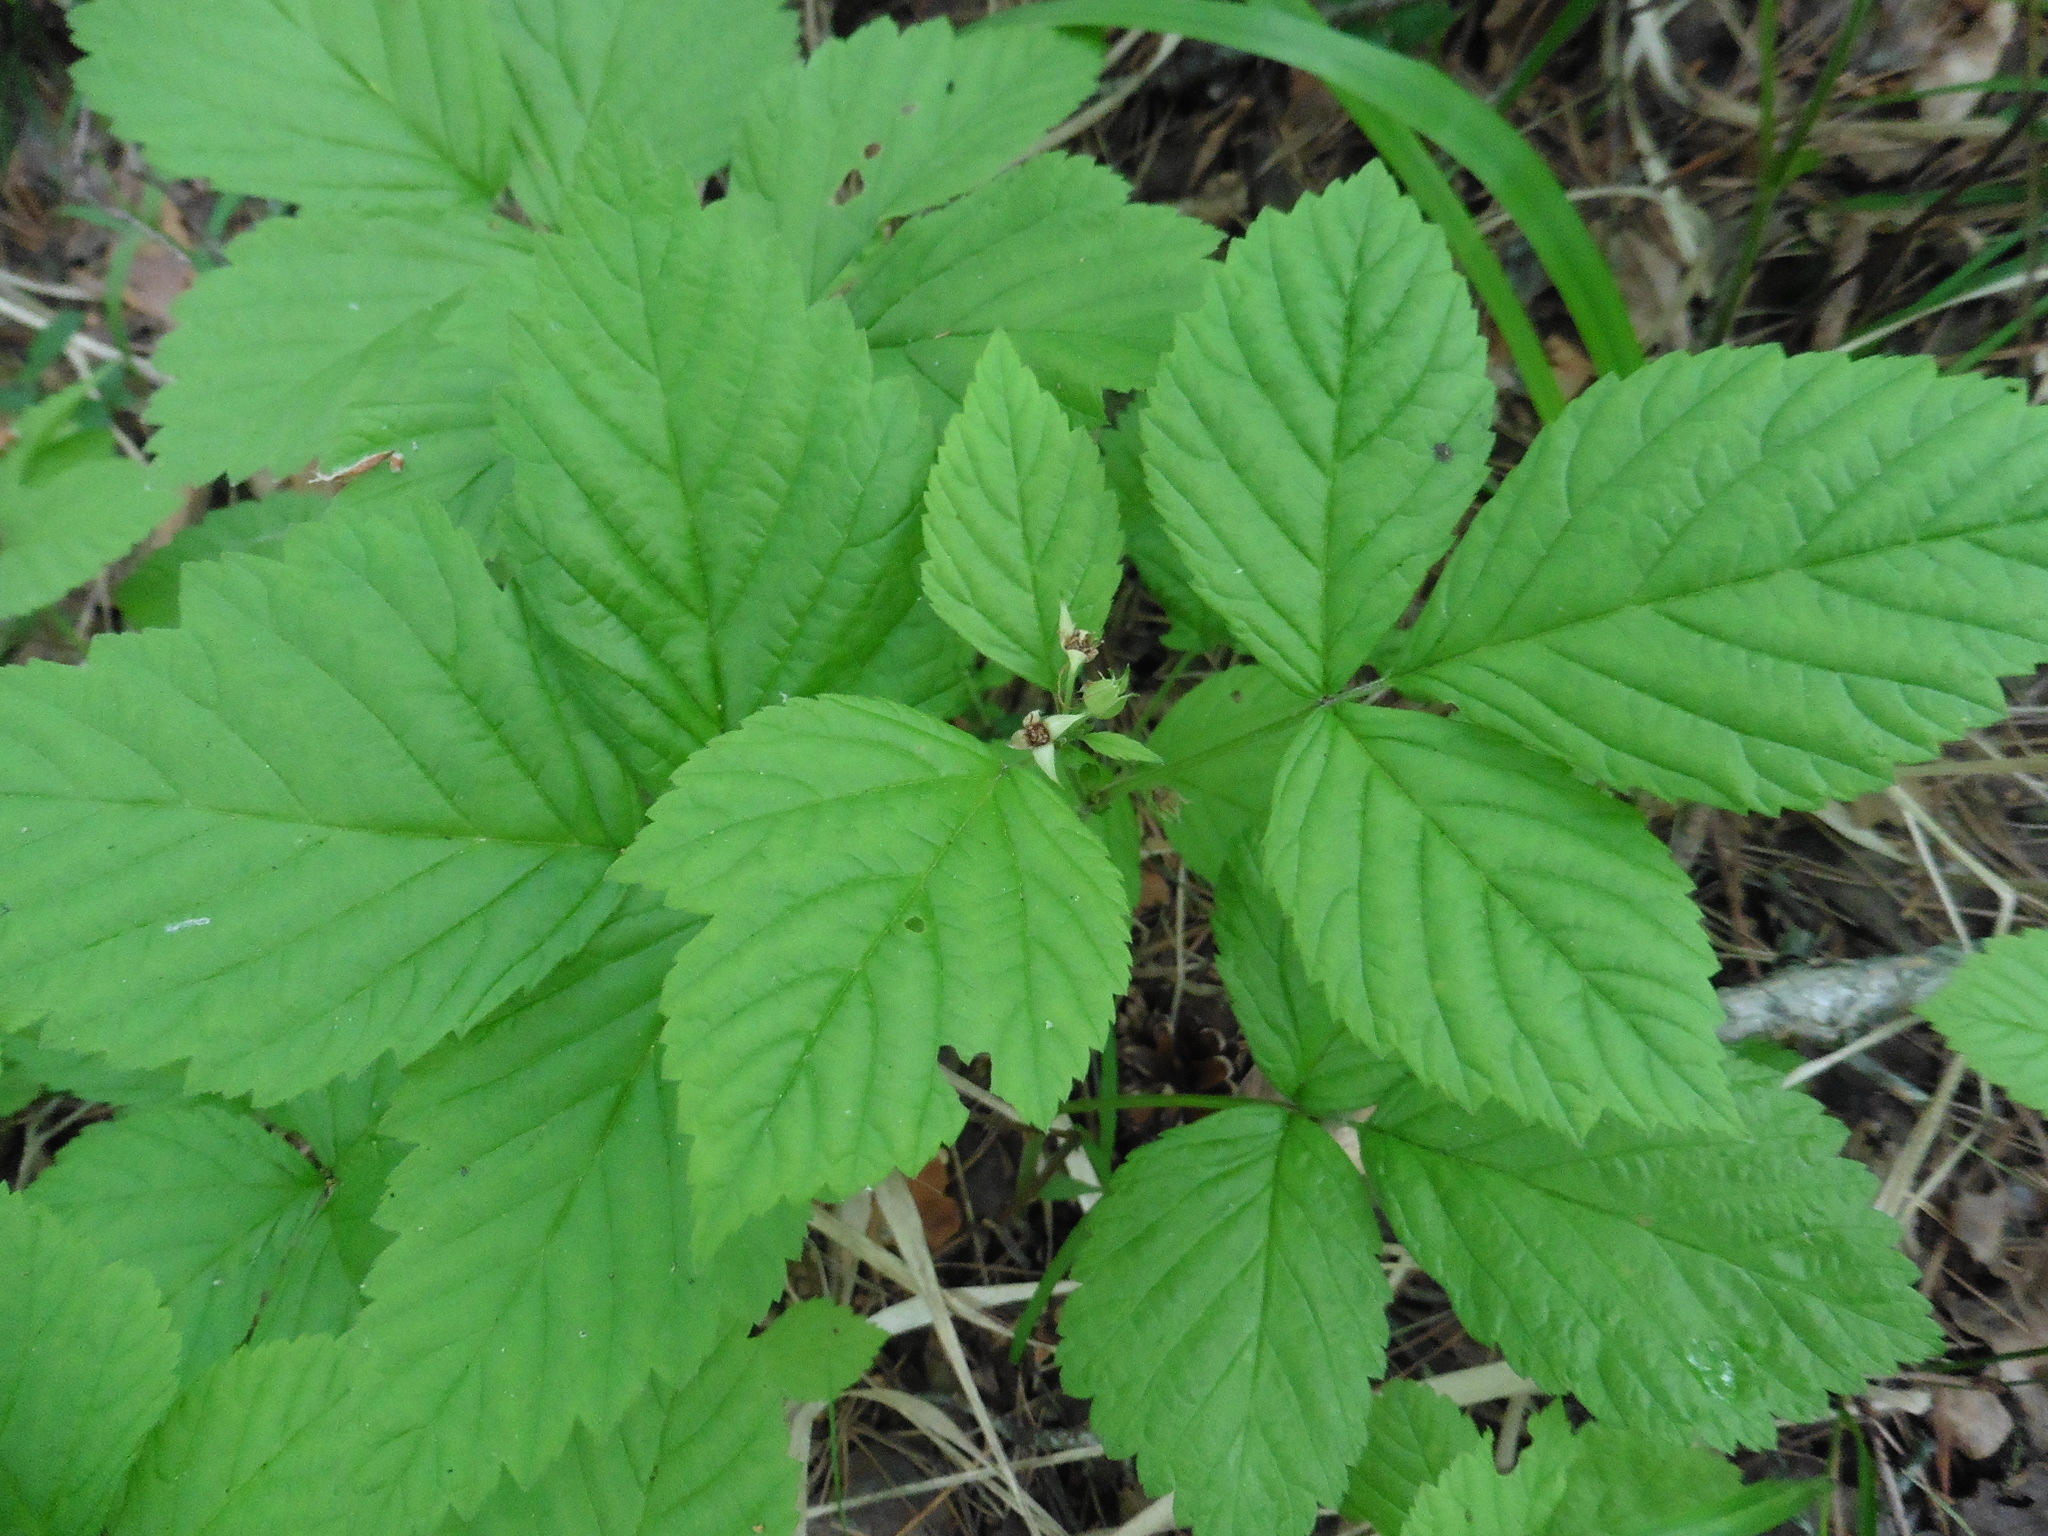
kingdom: Plantae
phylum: Tracheophyta
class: Magnoliopsida
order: Rosales
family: Rosaceae
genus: Rubus
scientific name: Rubus saxatilis
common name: Stone bramble
